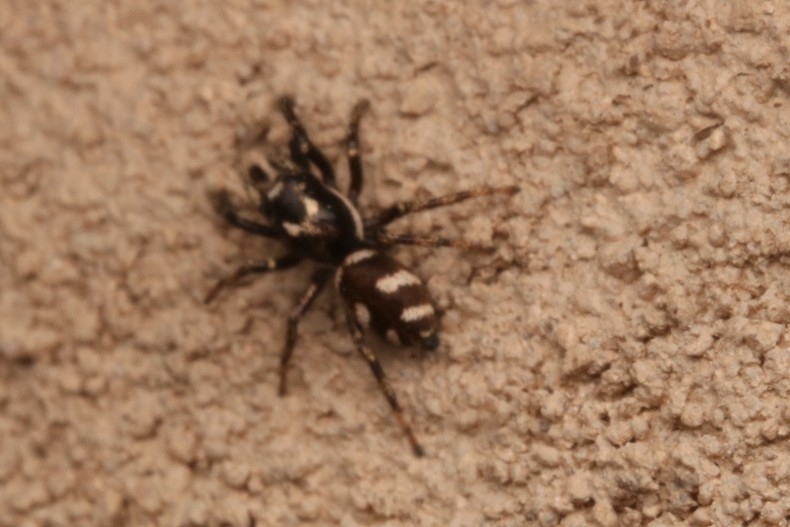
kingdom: Animalia
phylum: Arthropoda
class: Arachnida
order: Araneae
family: Salticidae
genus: Salticus
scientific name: Salticus scenicus
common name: Zebra jumper
